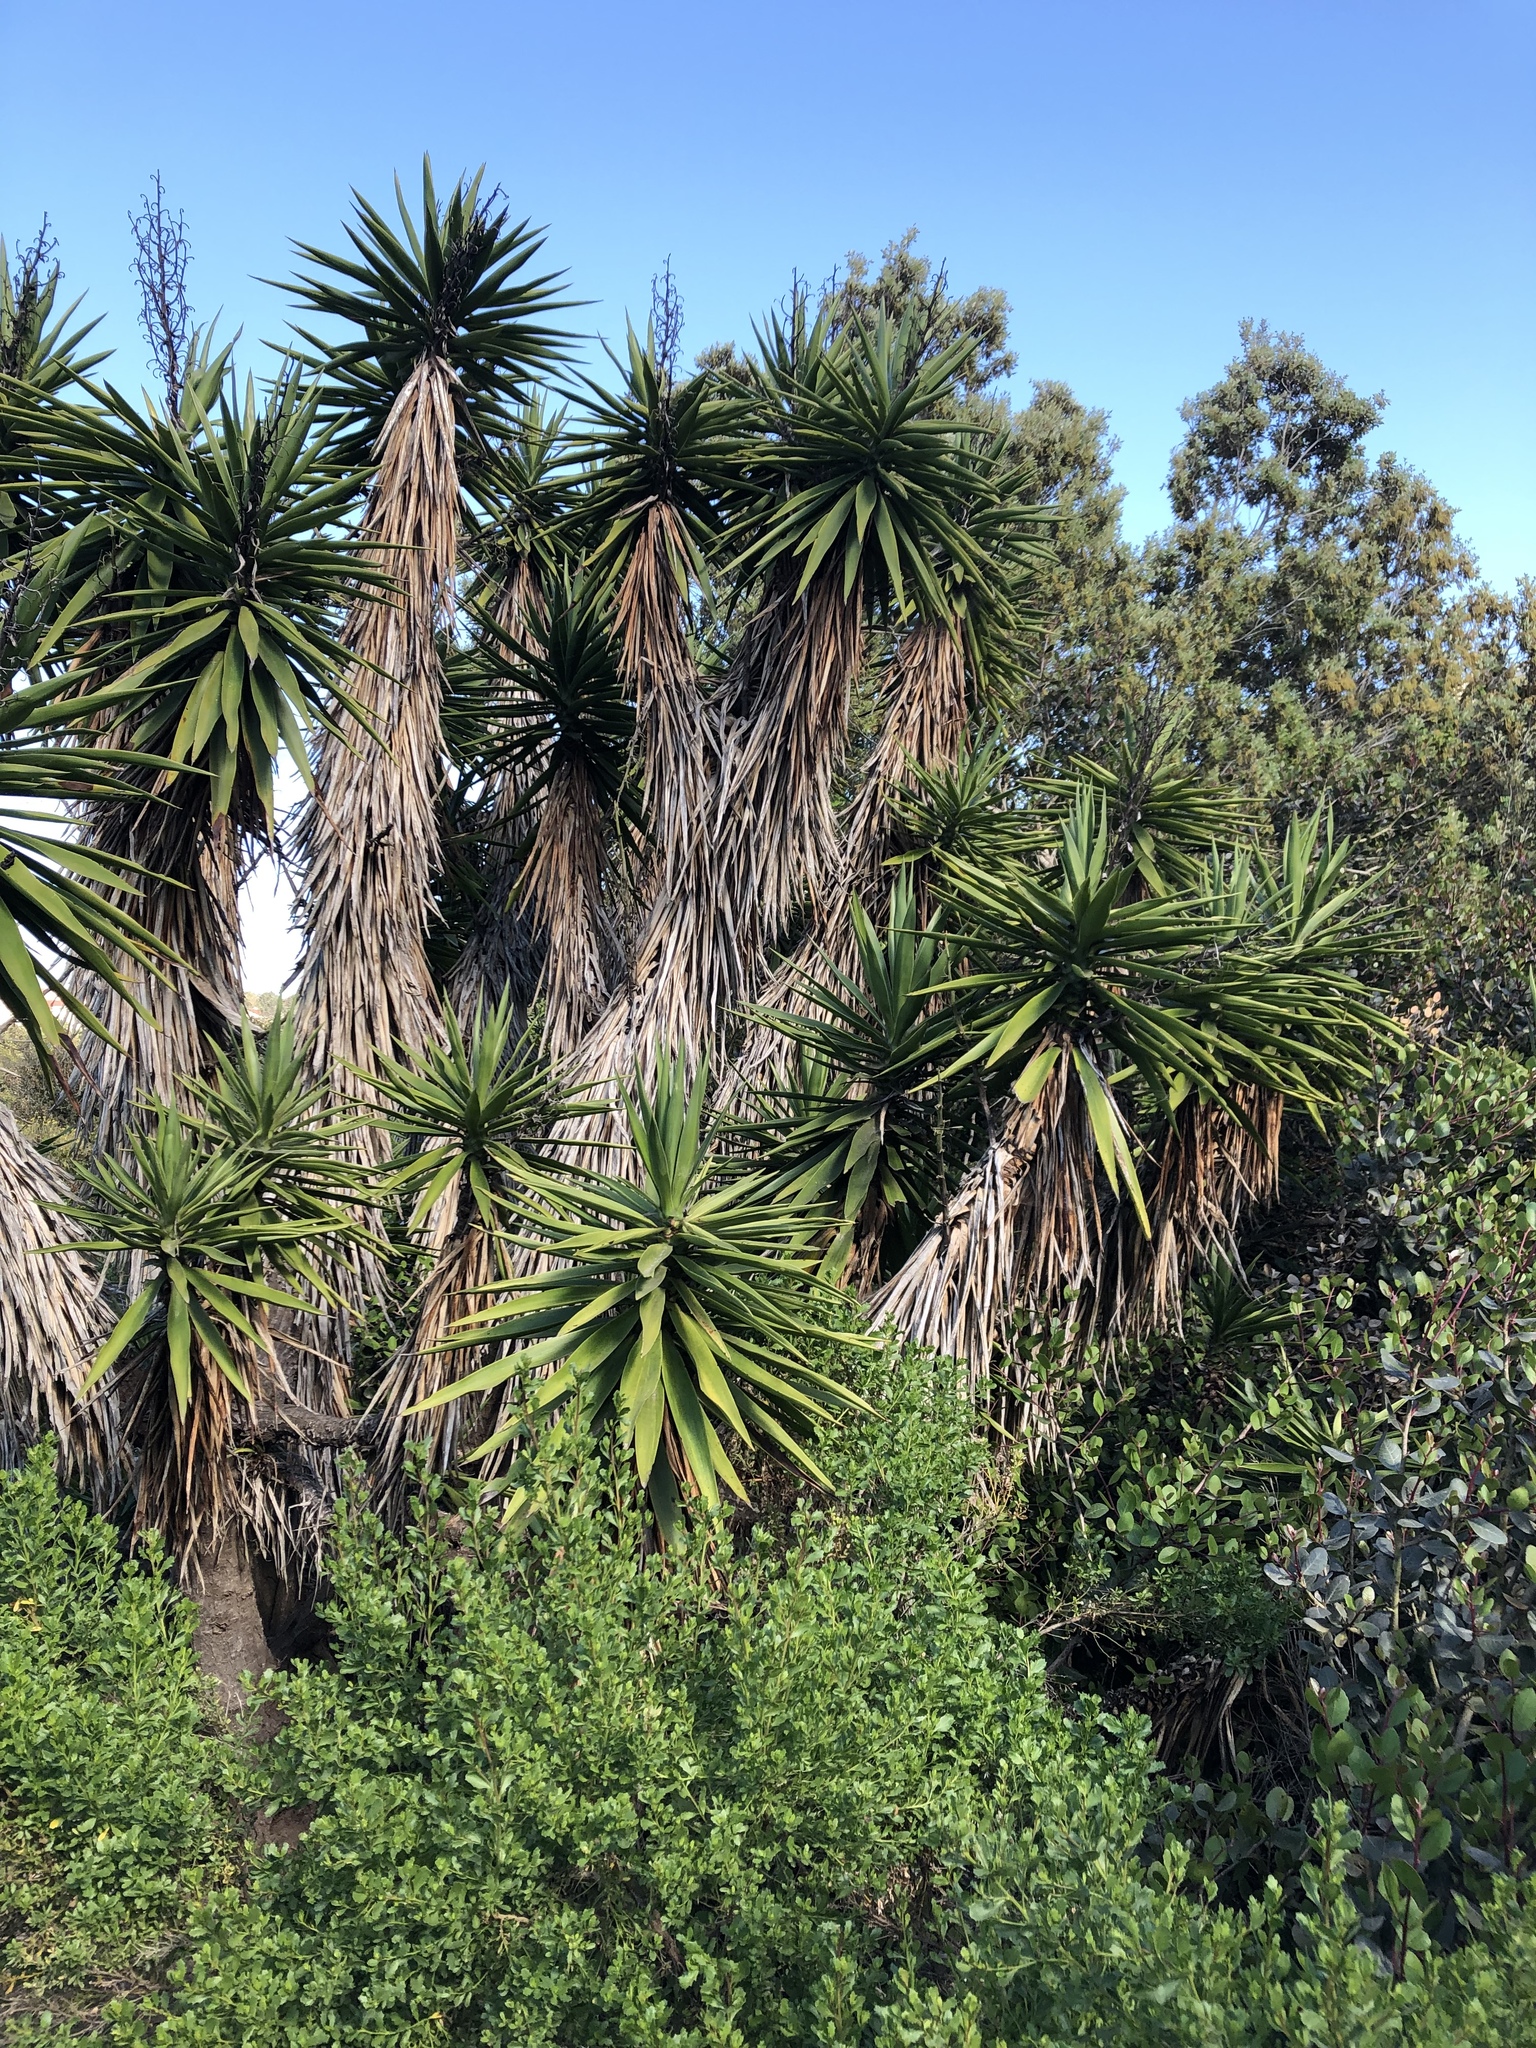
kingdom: Plantae
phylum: Tracheophyta
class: Liliopsida
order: Asparagales
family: Asparagaceae
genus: Yucca
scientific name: Yucca gigantea
